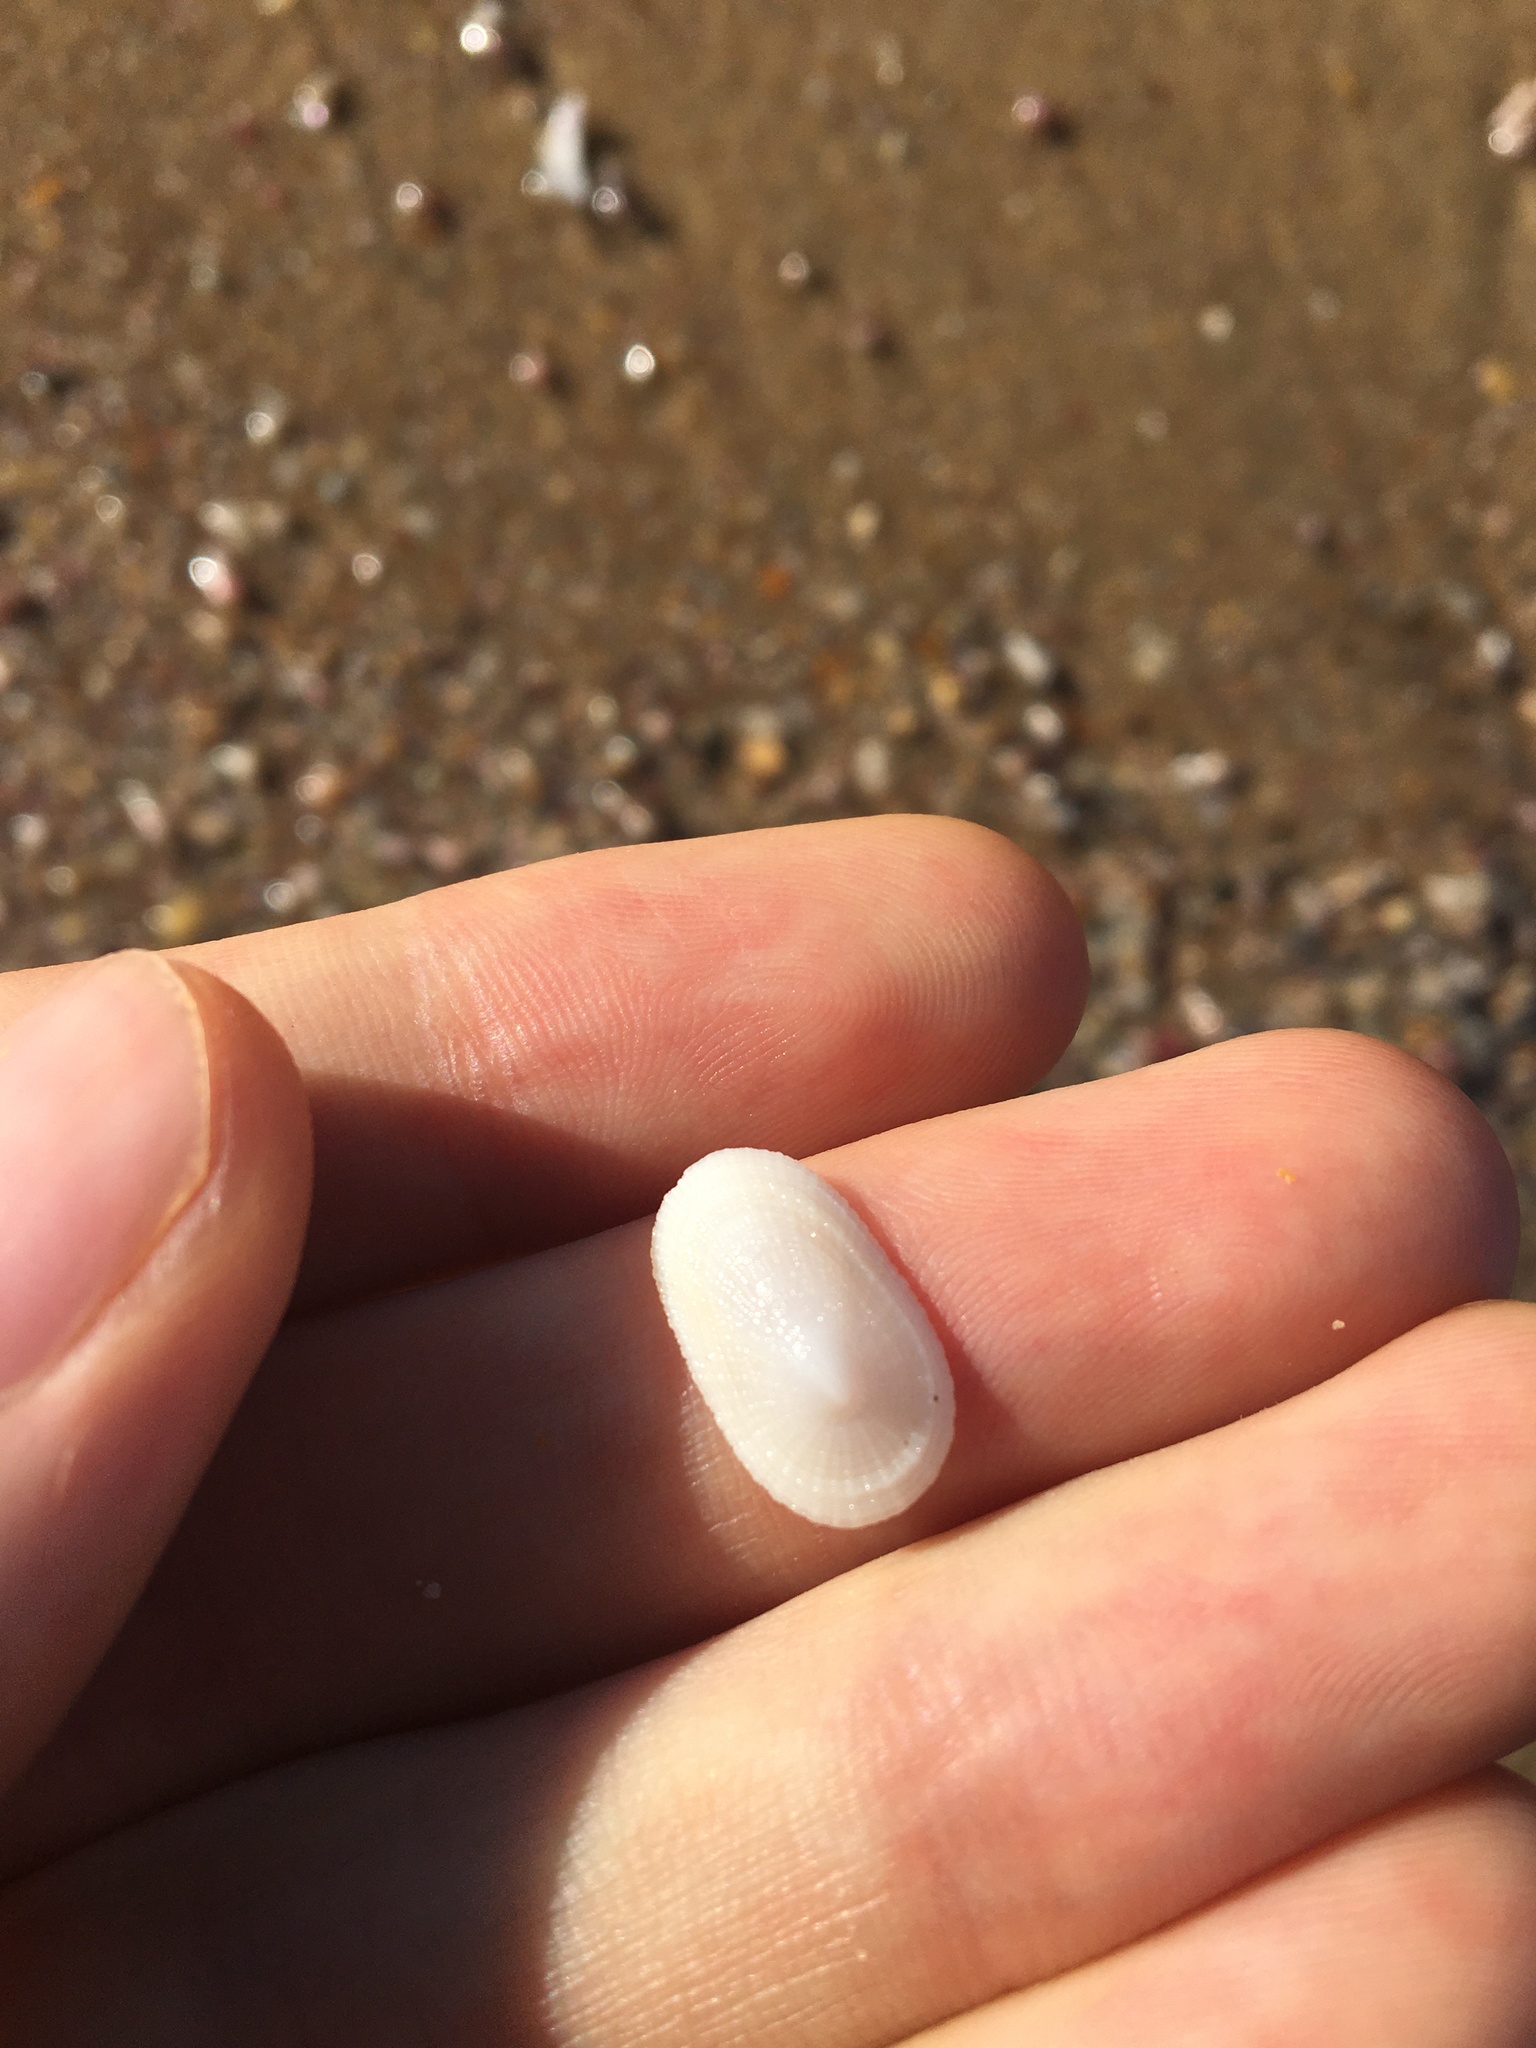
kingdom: Animalia
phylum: Mollusca
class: Gastropoda
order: Lepetellida
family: Fissurellidae
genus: Tugali
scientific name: Tugali parmophoidea
